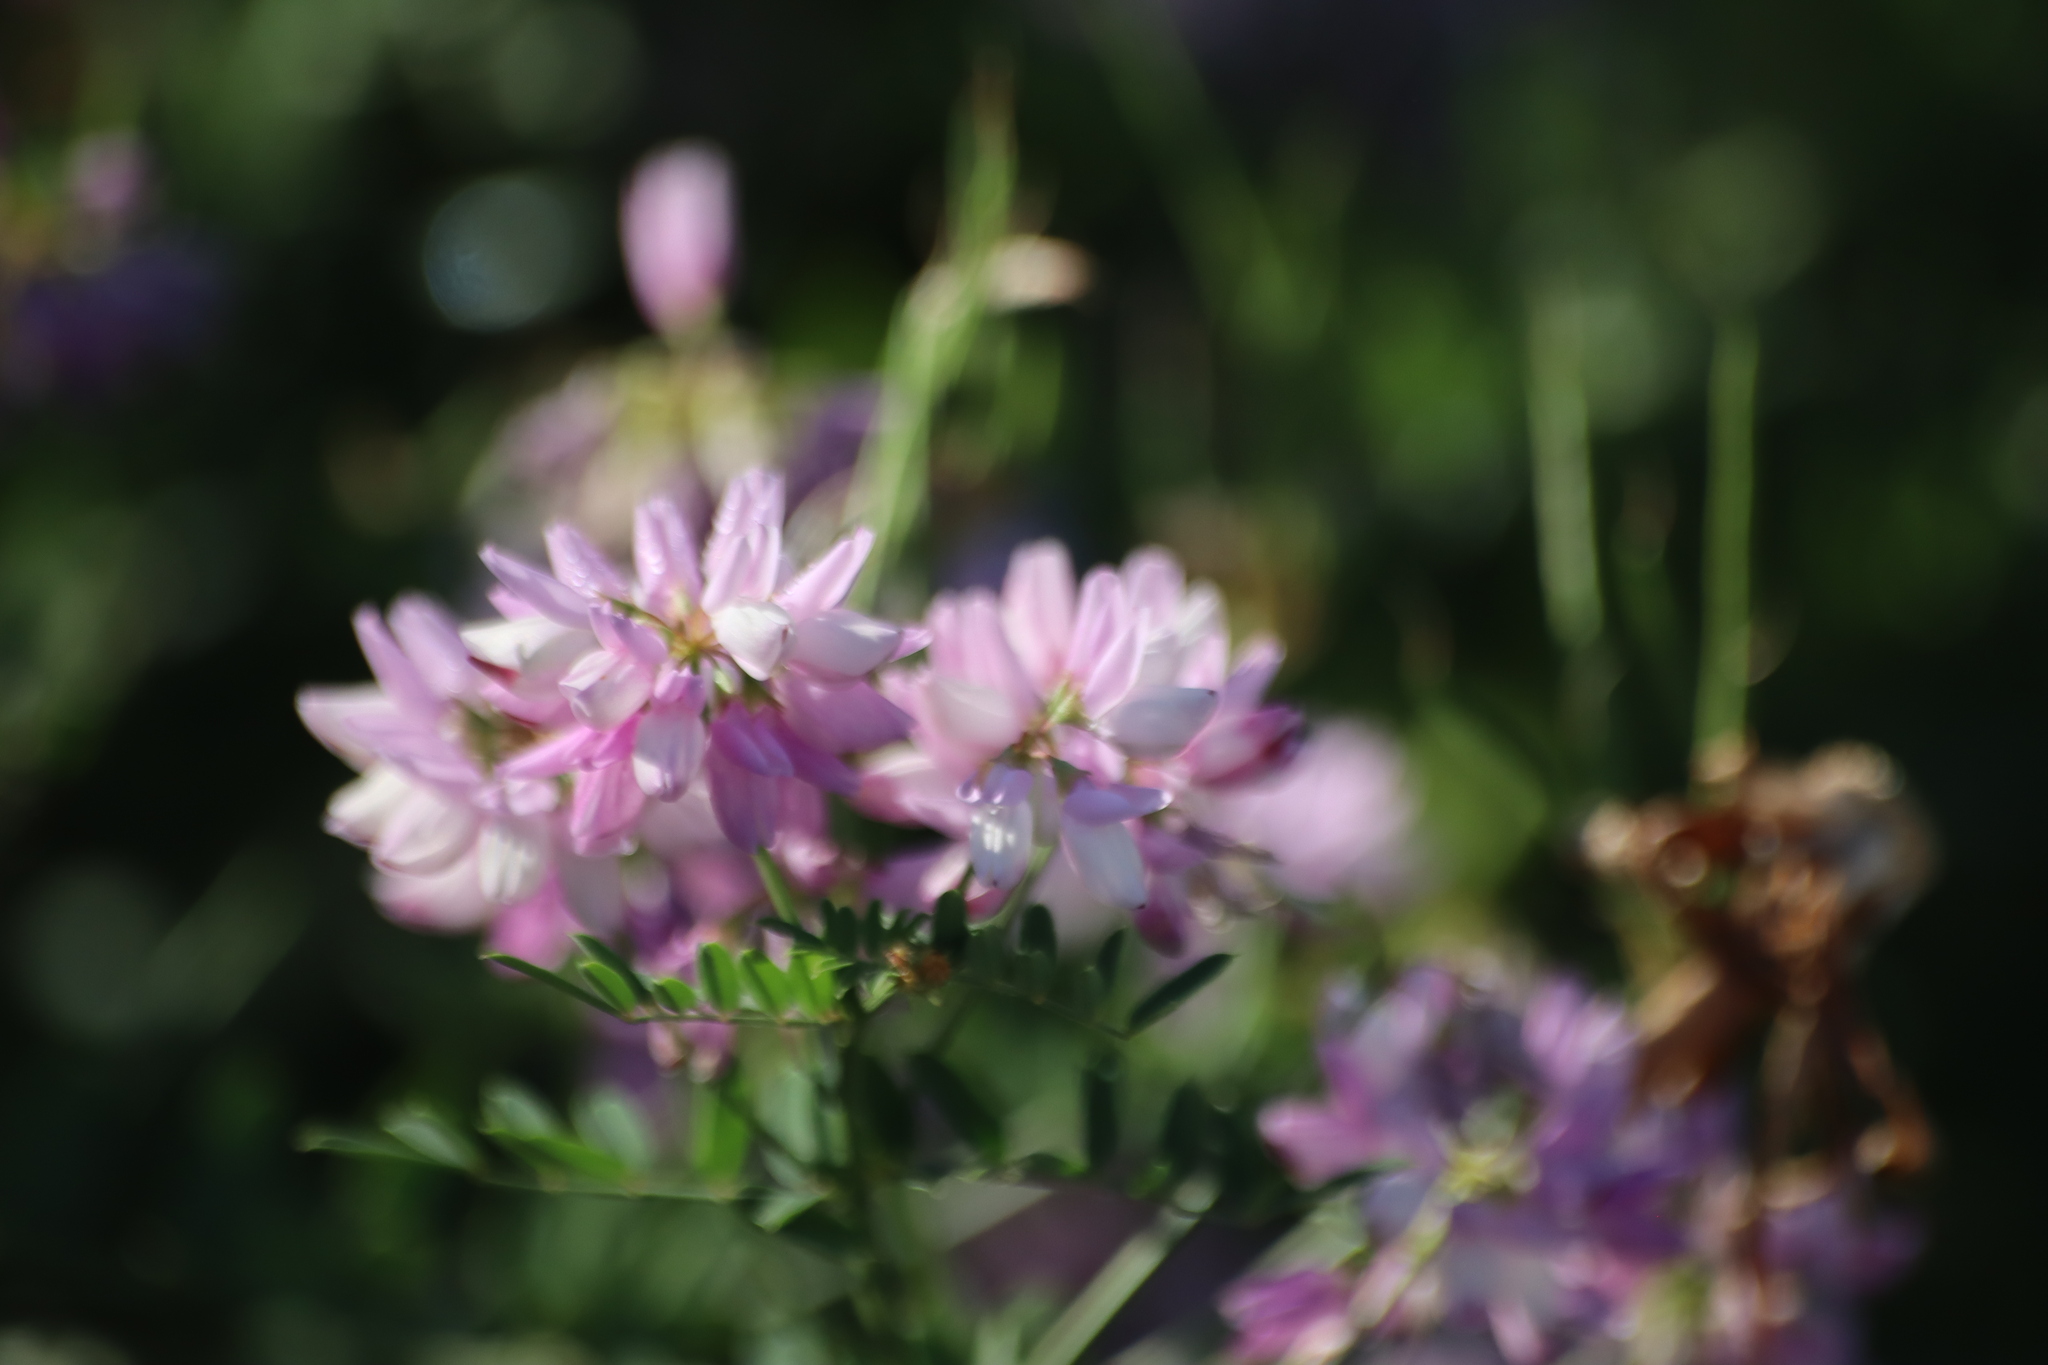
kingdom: Plantae
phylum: Tracheophyta
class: Magnoliopsida
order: Fabales
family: Fabaceae
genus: Coronilla
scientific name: Coronilla varia
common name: Crownvetch
